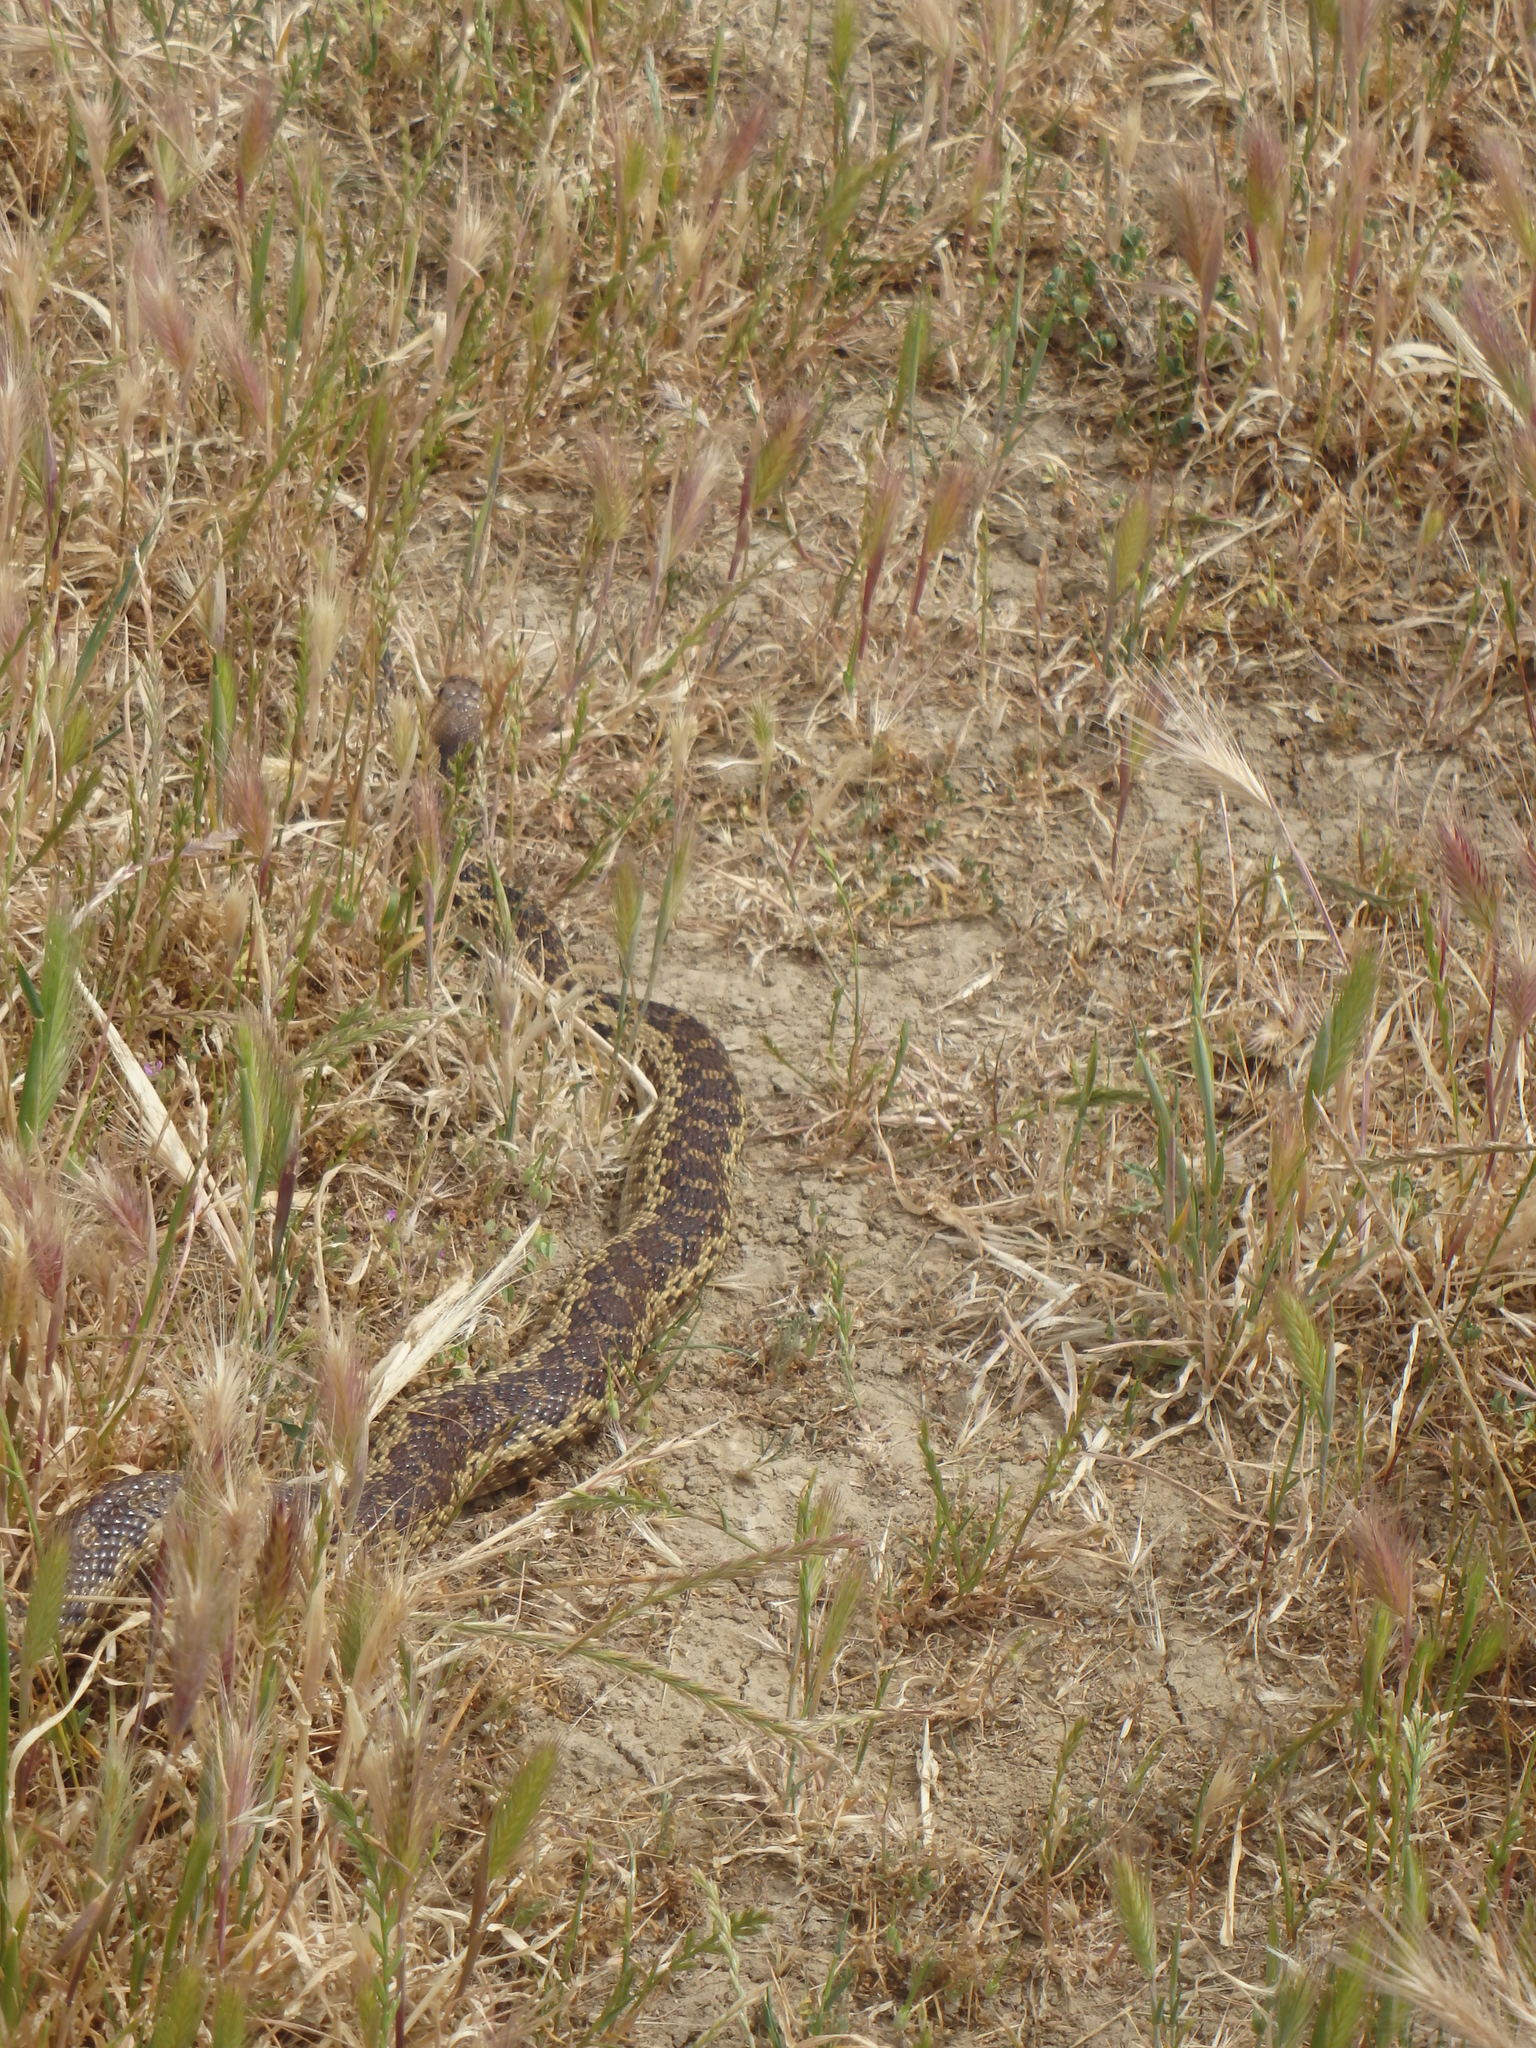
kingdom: Animalia
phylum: Chordata
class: Squamata
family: Colubridae
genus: Pituophis
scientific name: Pituophis catenifer
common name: Gopher snake
